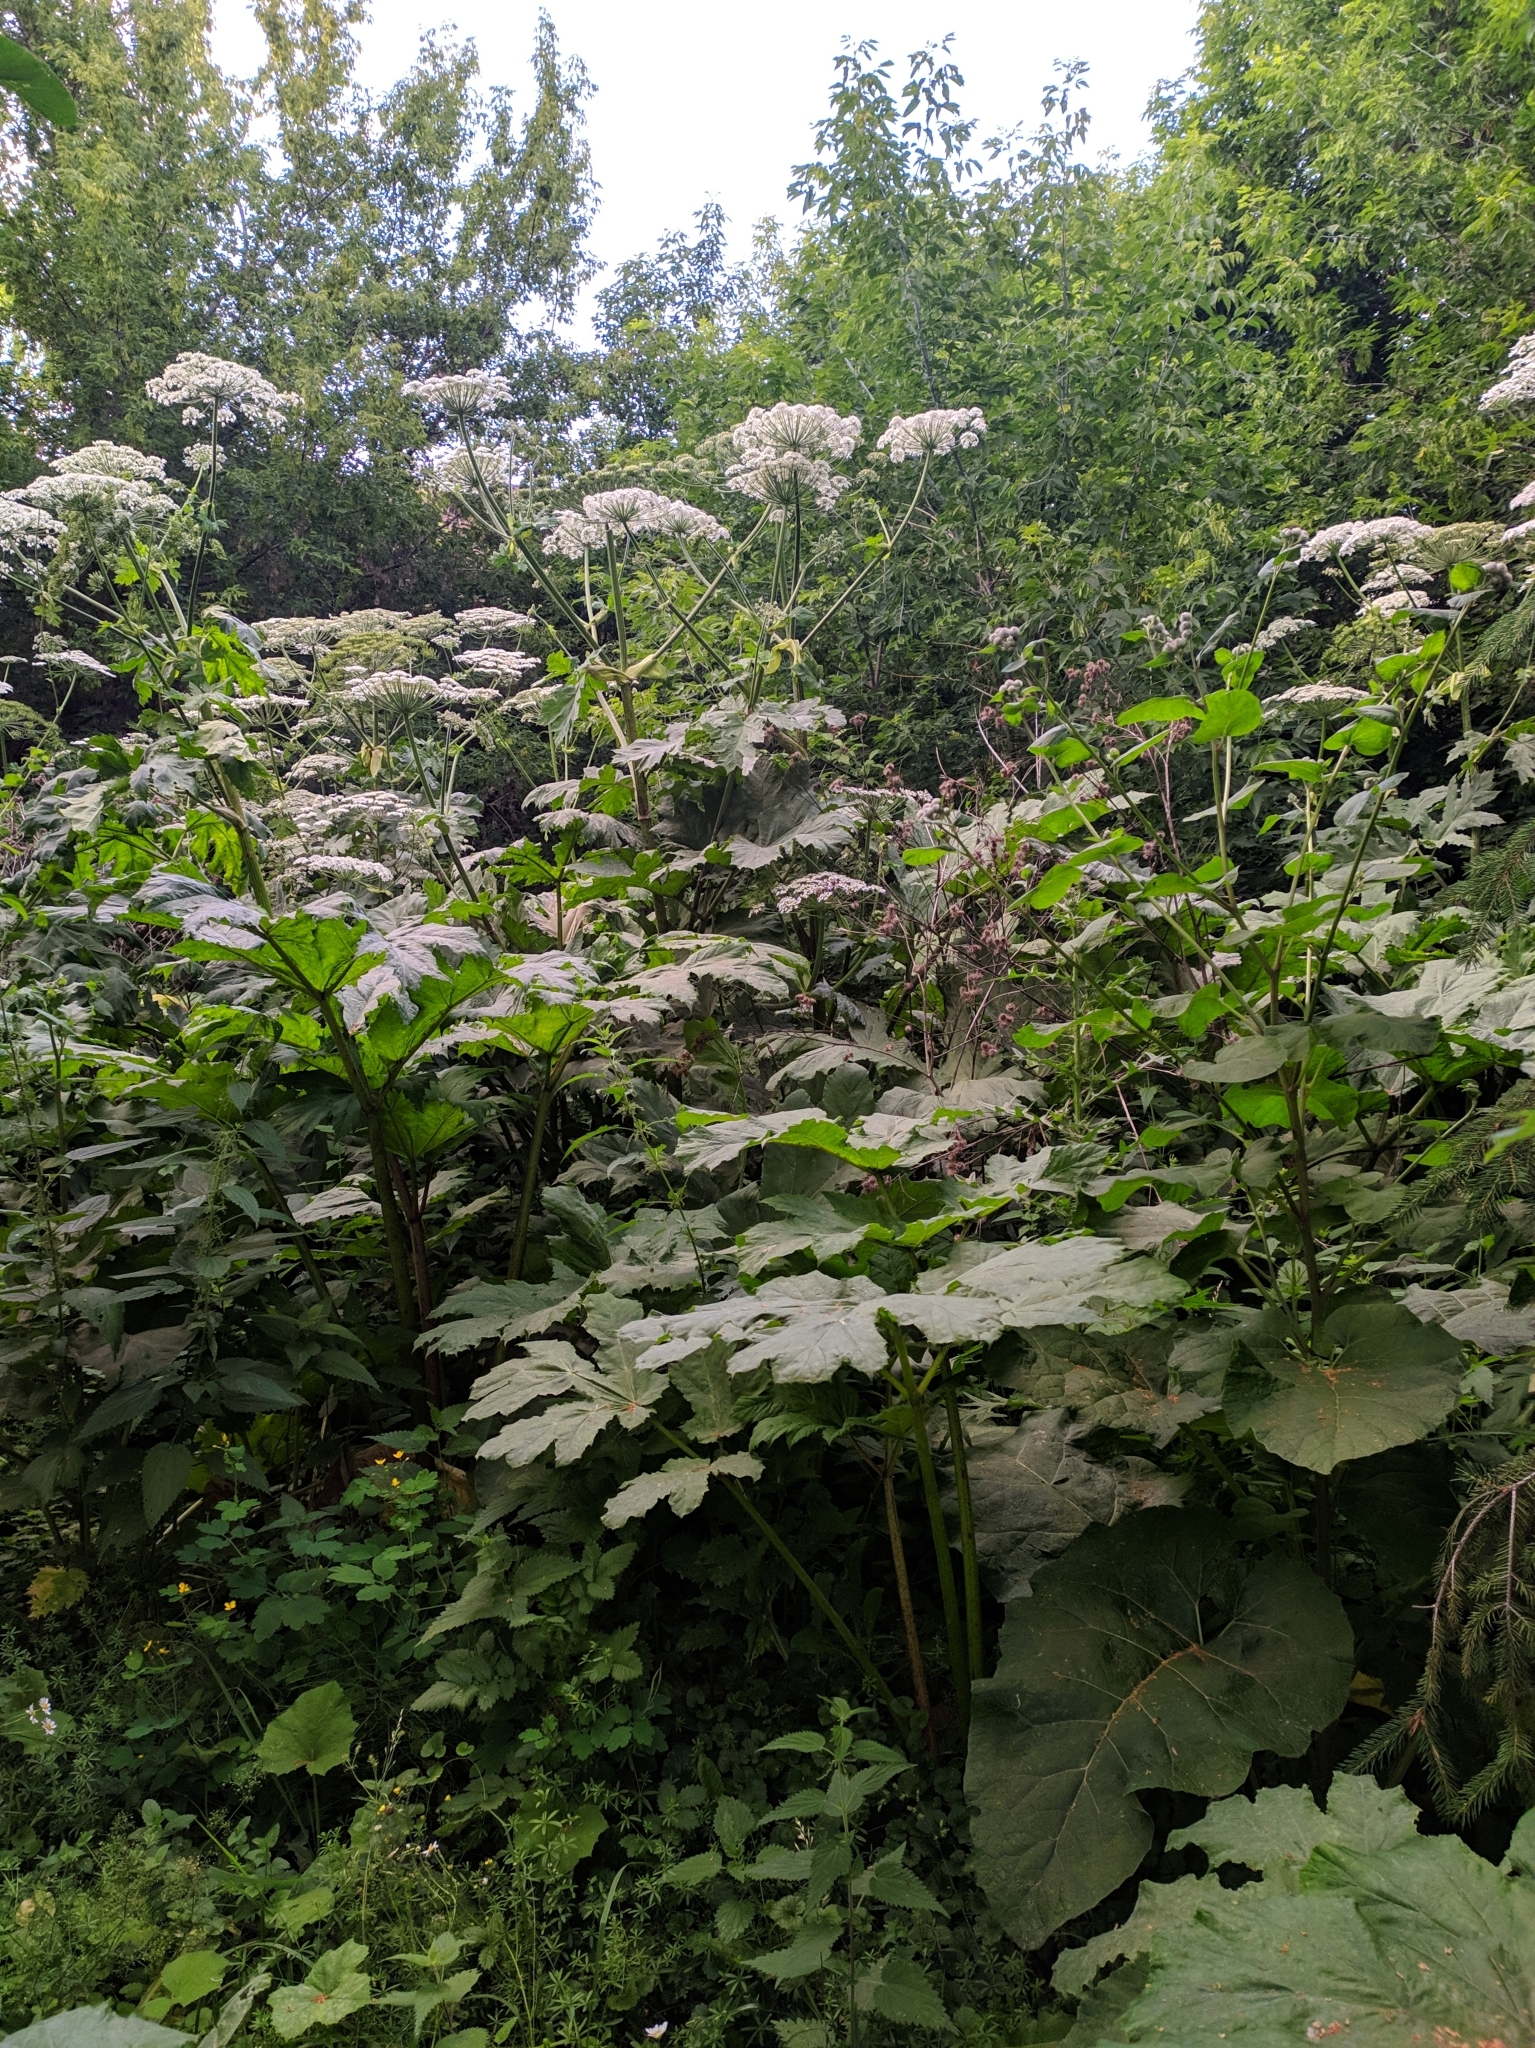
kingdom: Plantae
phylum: Tracheophyta
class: Magnoliopsida
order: Apiales
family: Apiaceae
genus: Heracleum
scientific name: Heracleum sosnowskyi
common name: Sosnowsky's hogweed
